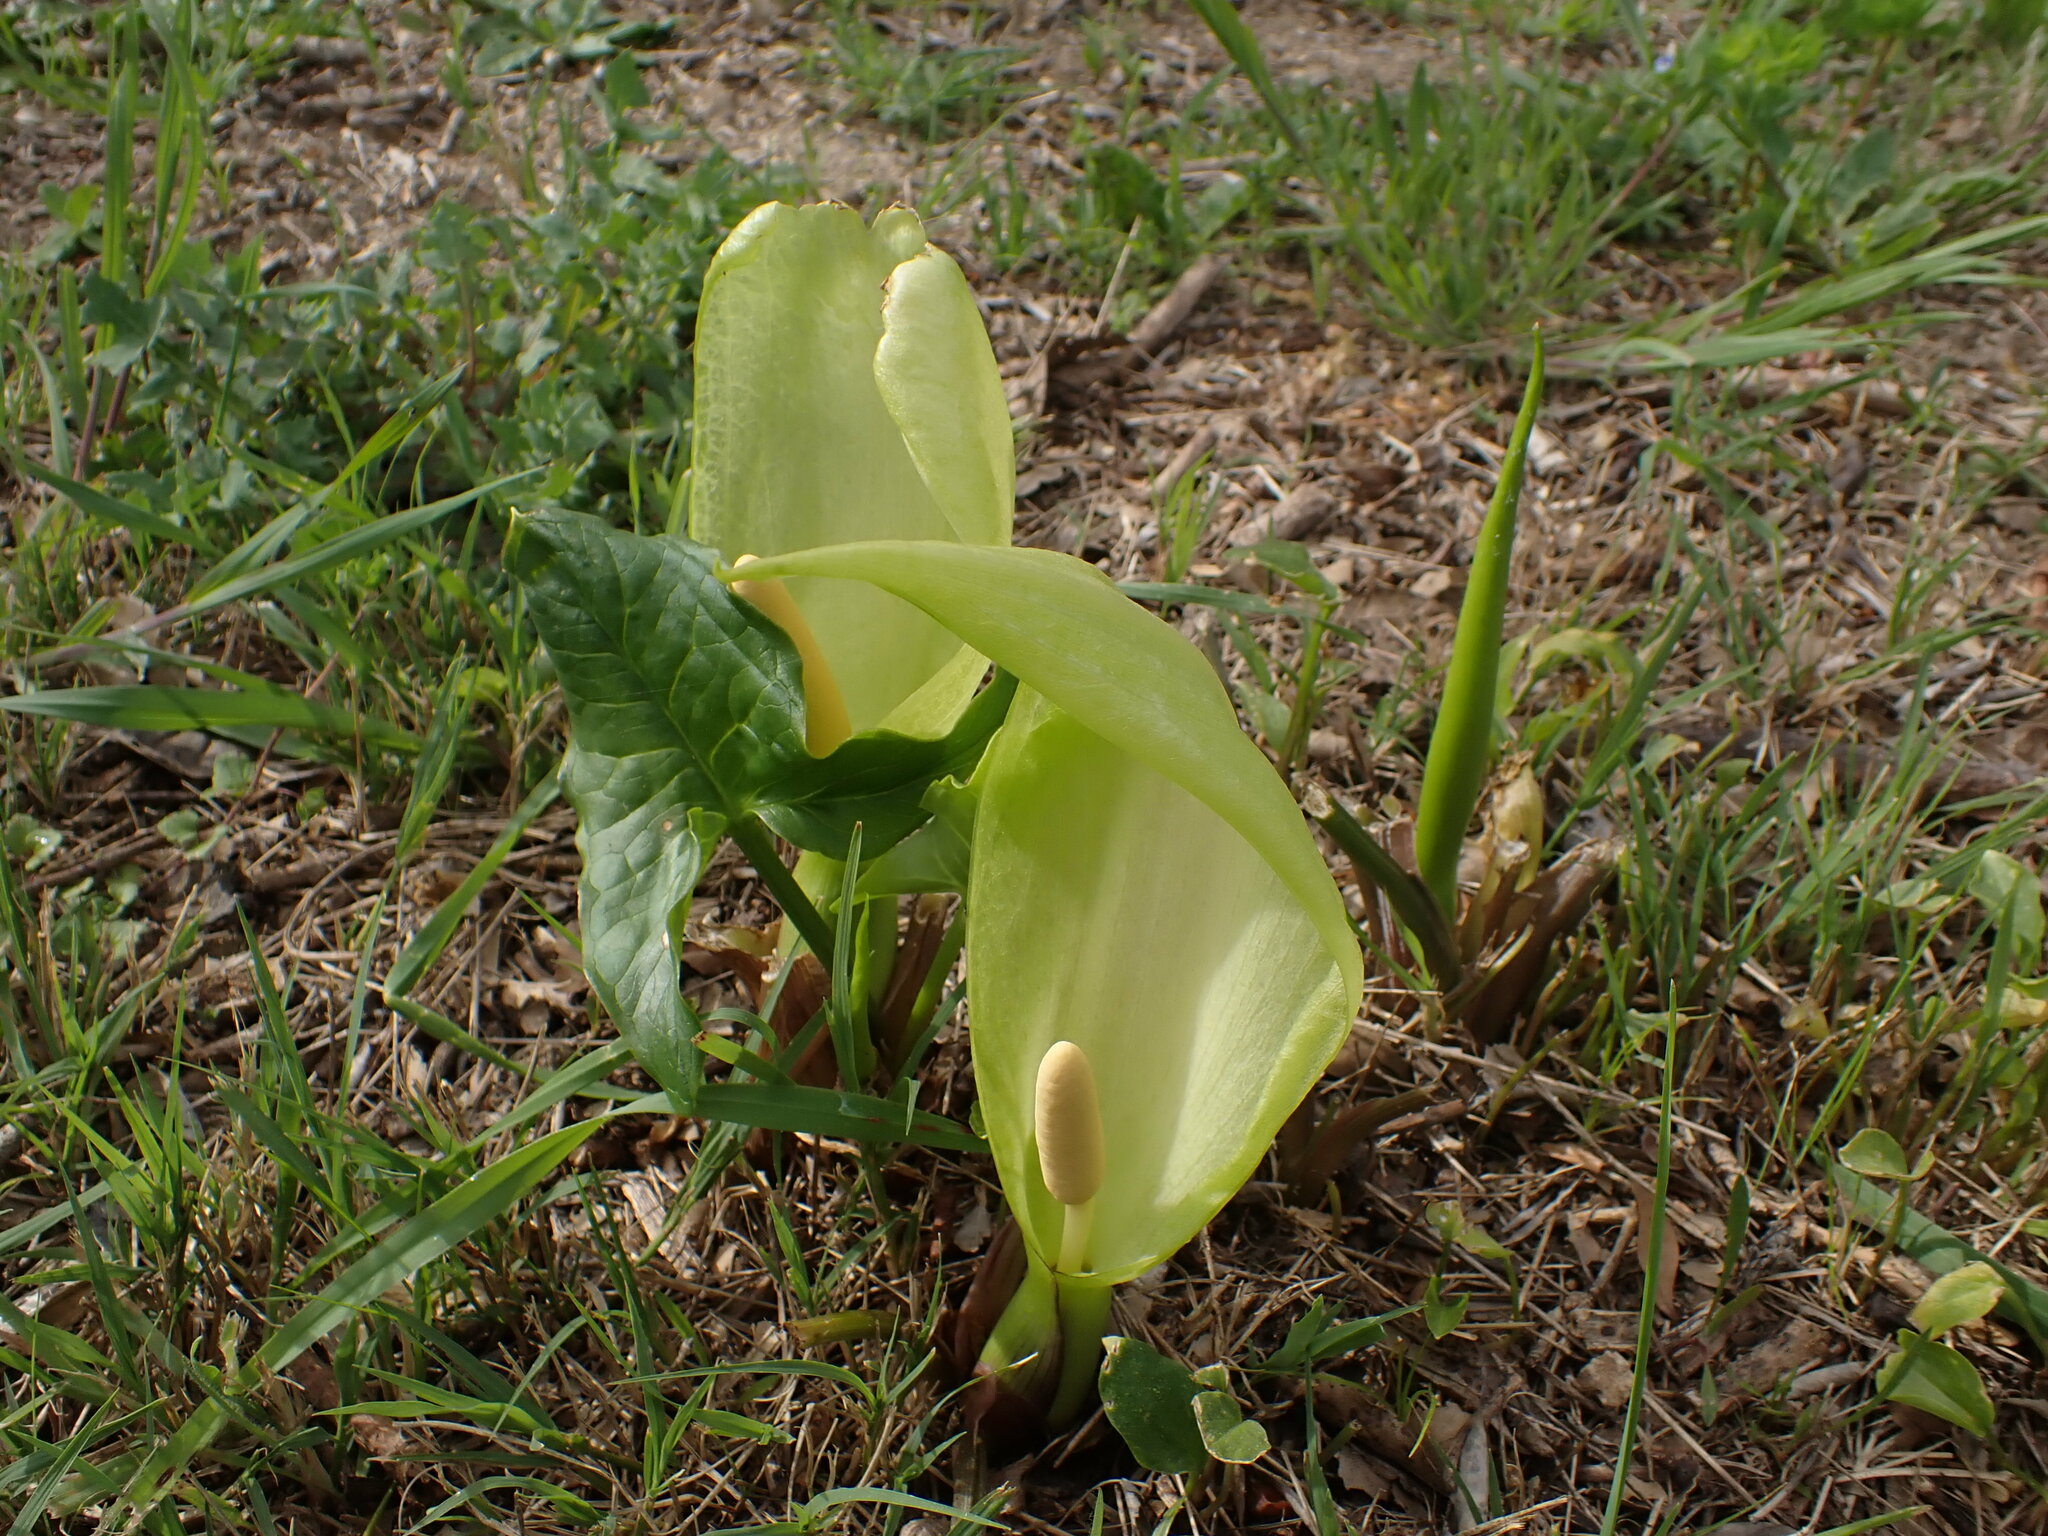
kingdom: Plantae
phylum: Tracheophyta
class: Liliopsida
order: Alismatales
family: Araceae
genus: Arum
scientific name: Arum italicum
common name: Italian lords-and-ladies
